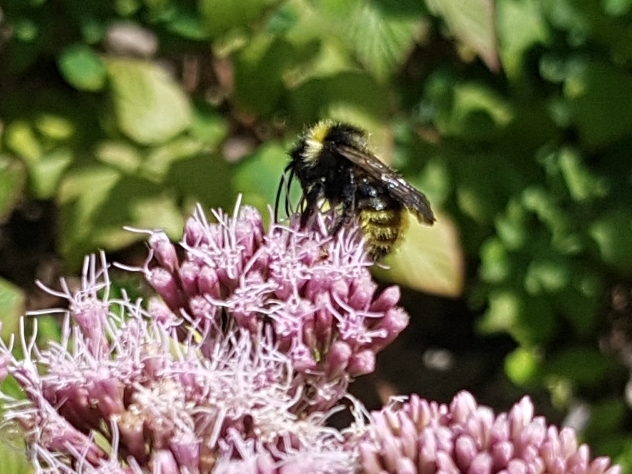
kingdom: Animalia
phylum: Arthropoda
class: Insecta
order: Hymenoptera
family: Apidae
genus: Bombus
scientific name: Bombus campestris
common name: Field cuckoo-bee
